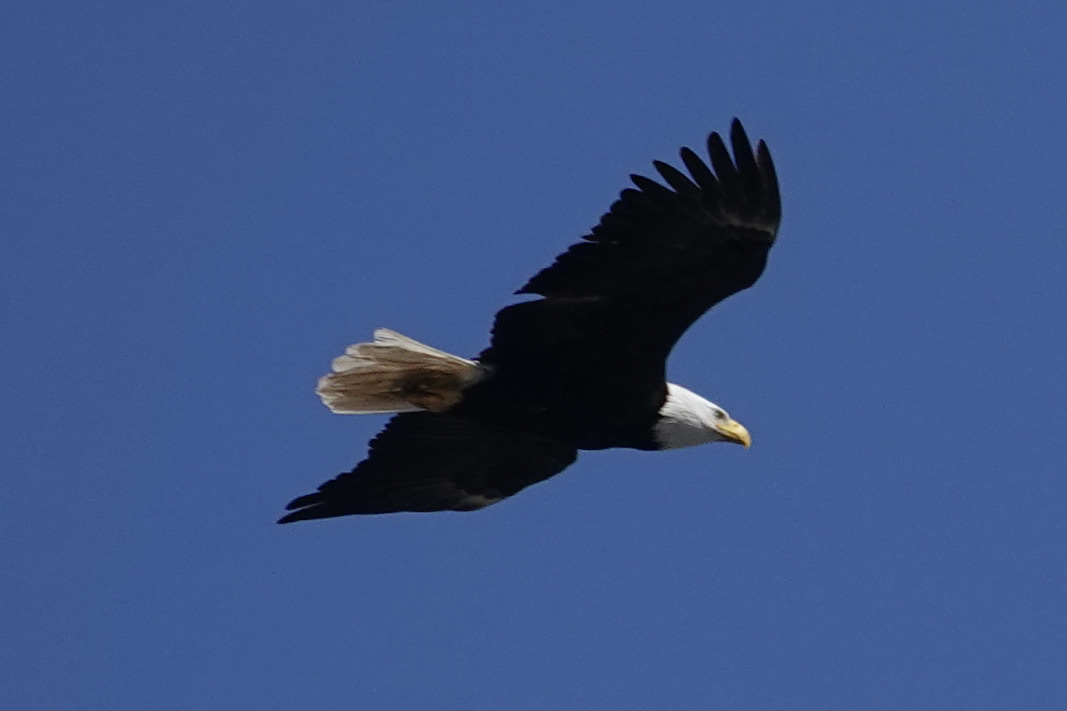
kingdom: Animalia
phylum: Chordata
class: Aves
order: Accipitriformes
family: Accipitridae
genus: Haliaeetus
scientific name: Haliaeetus leucocephalus
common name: Bald eagle
